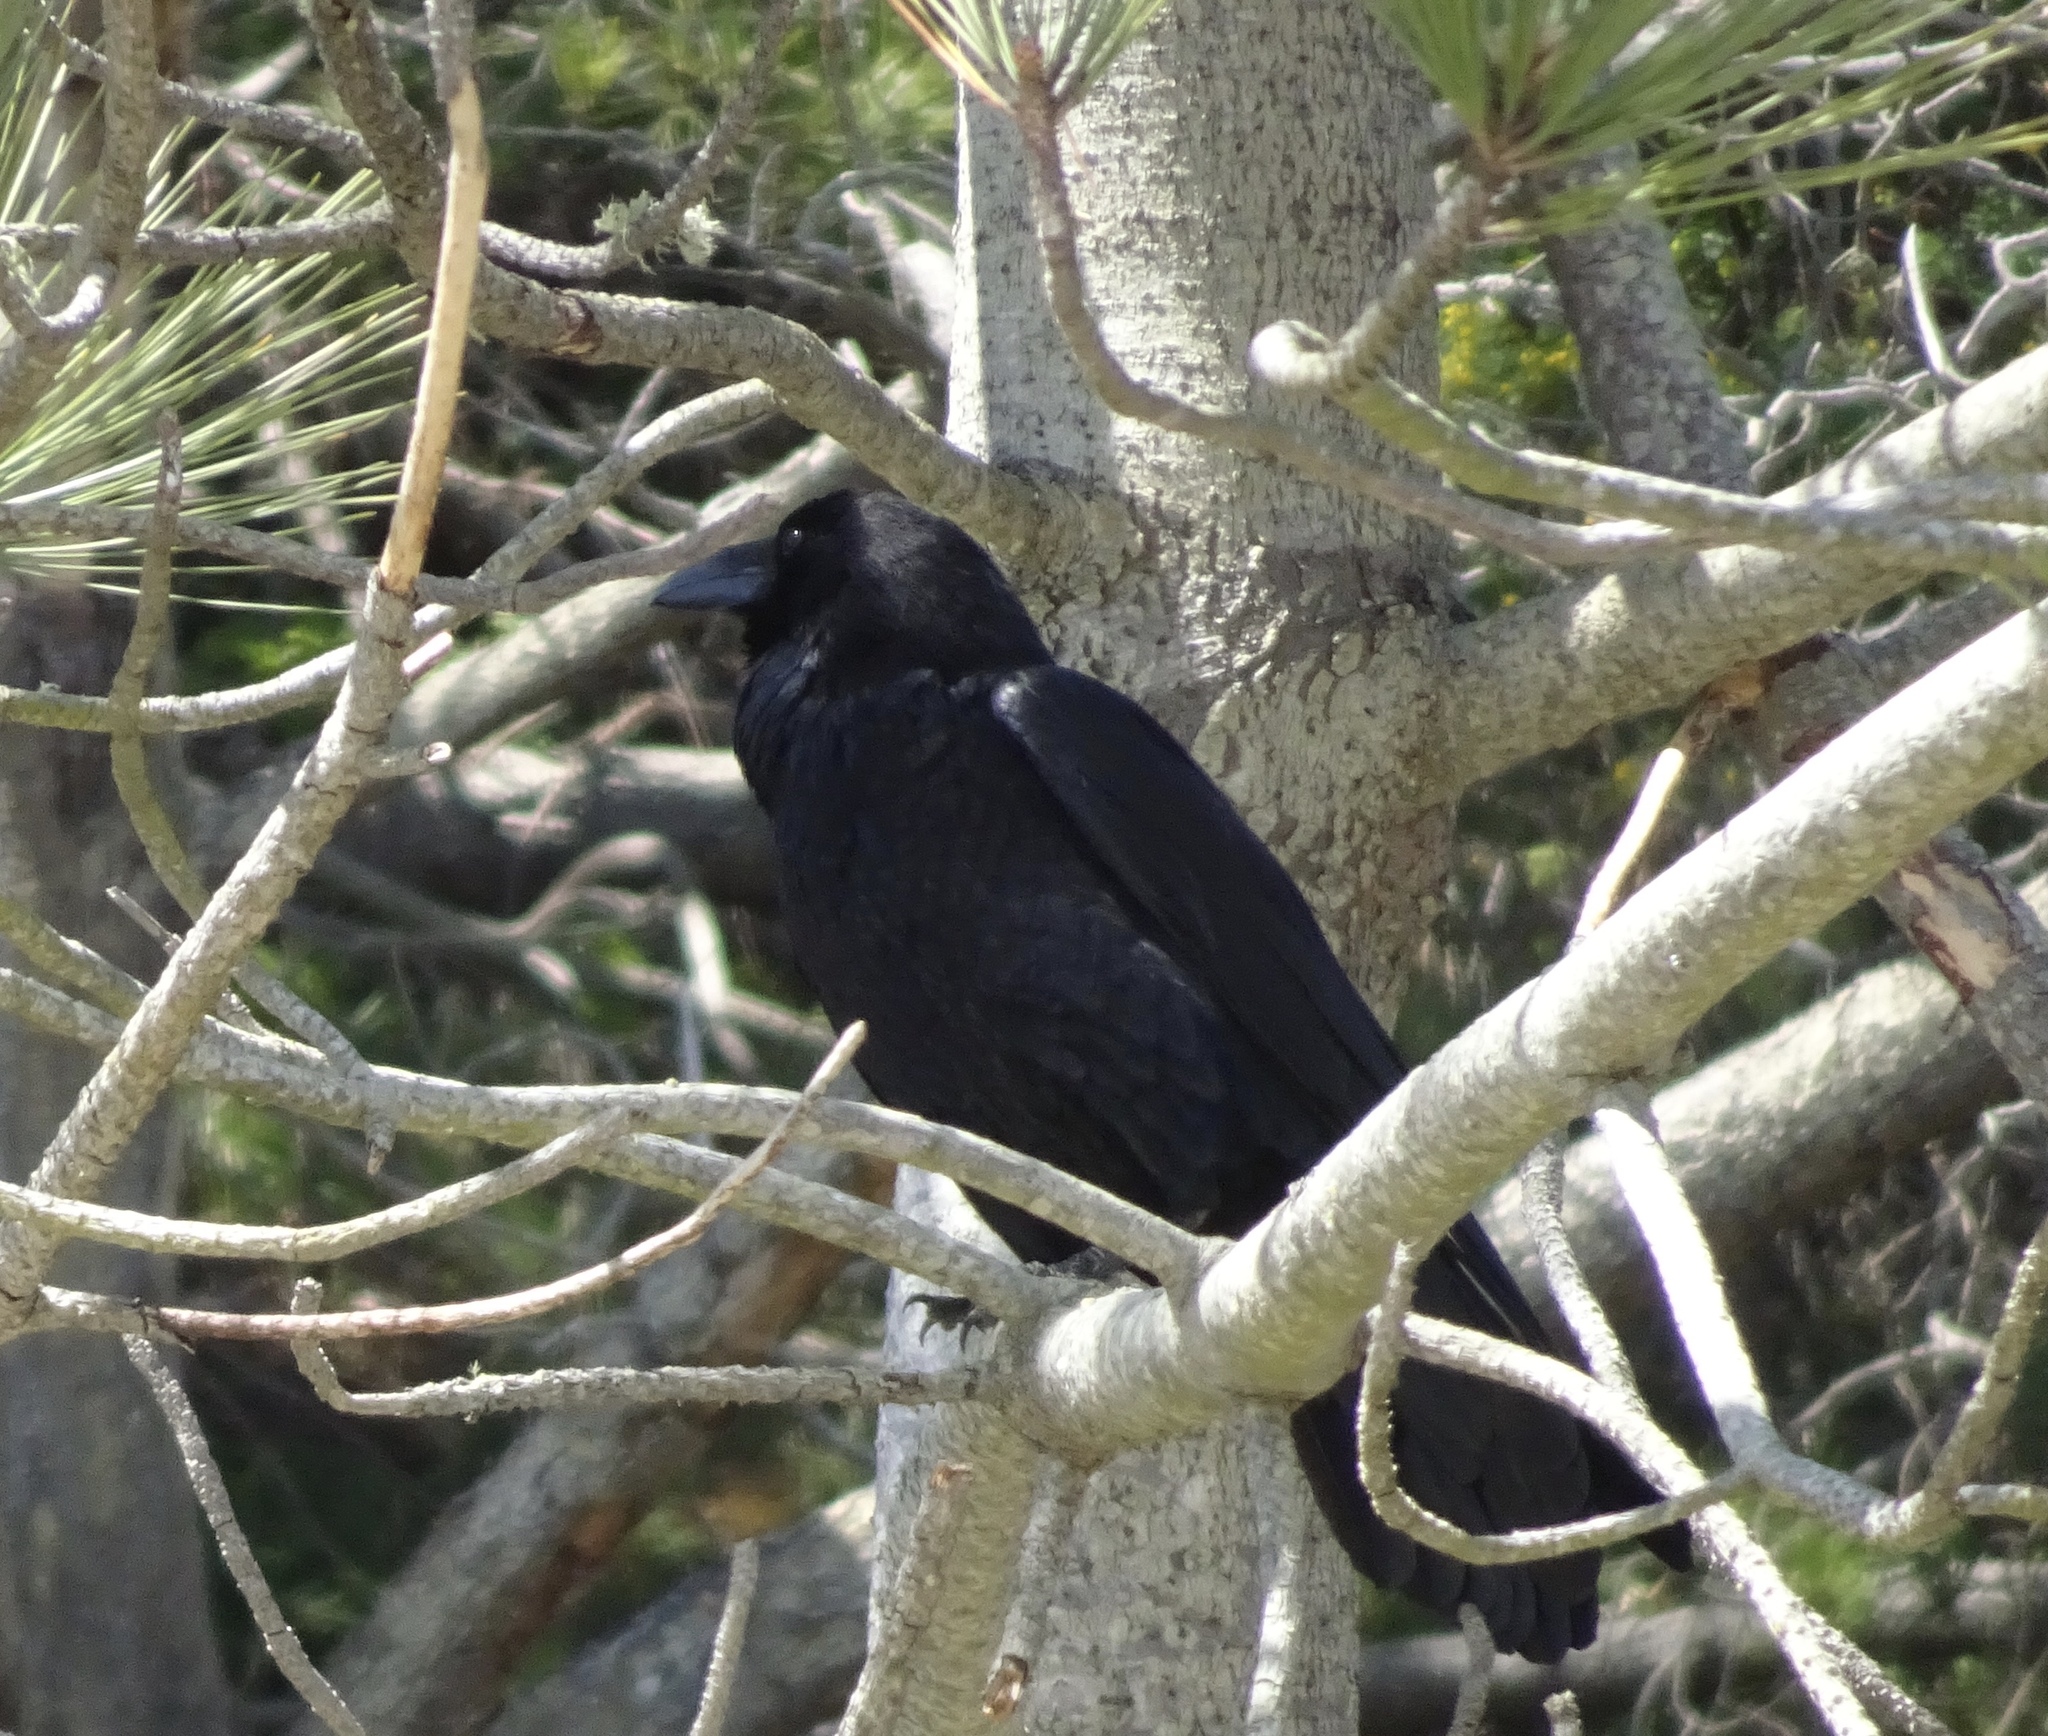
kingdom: Animalia
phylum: Chordata
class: Aves
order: Passeriformes
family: Corvidae
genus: Corvus
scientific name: Corvus corax
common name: Common raven
